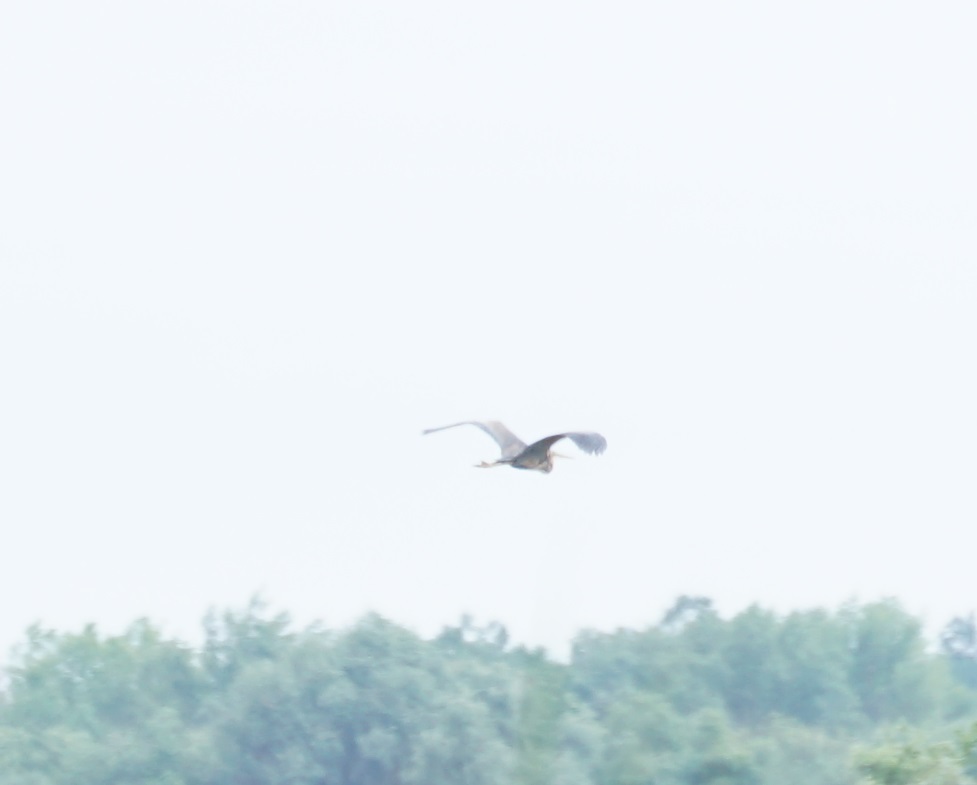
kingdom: Animalia
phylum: Chordata
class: Aves
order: Pelecaniformes
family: Ardeidae
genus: Ardea
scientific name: Ardea purpurea
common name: Purple heron
